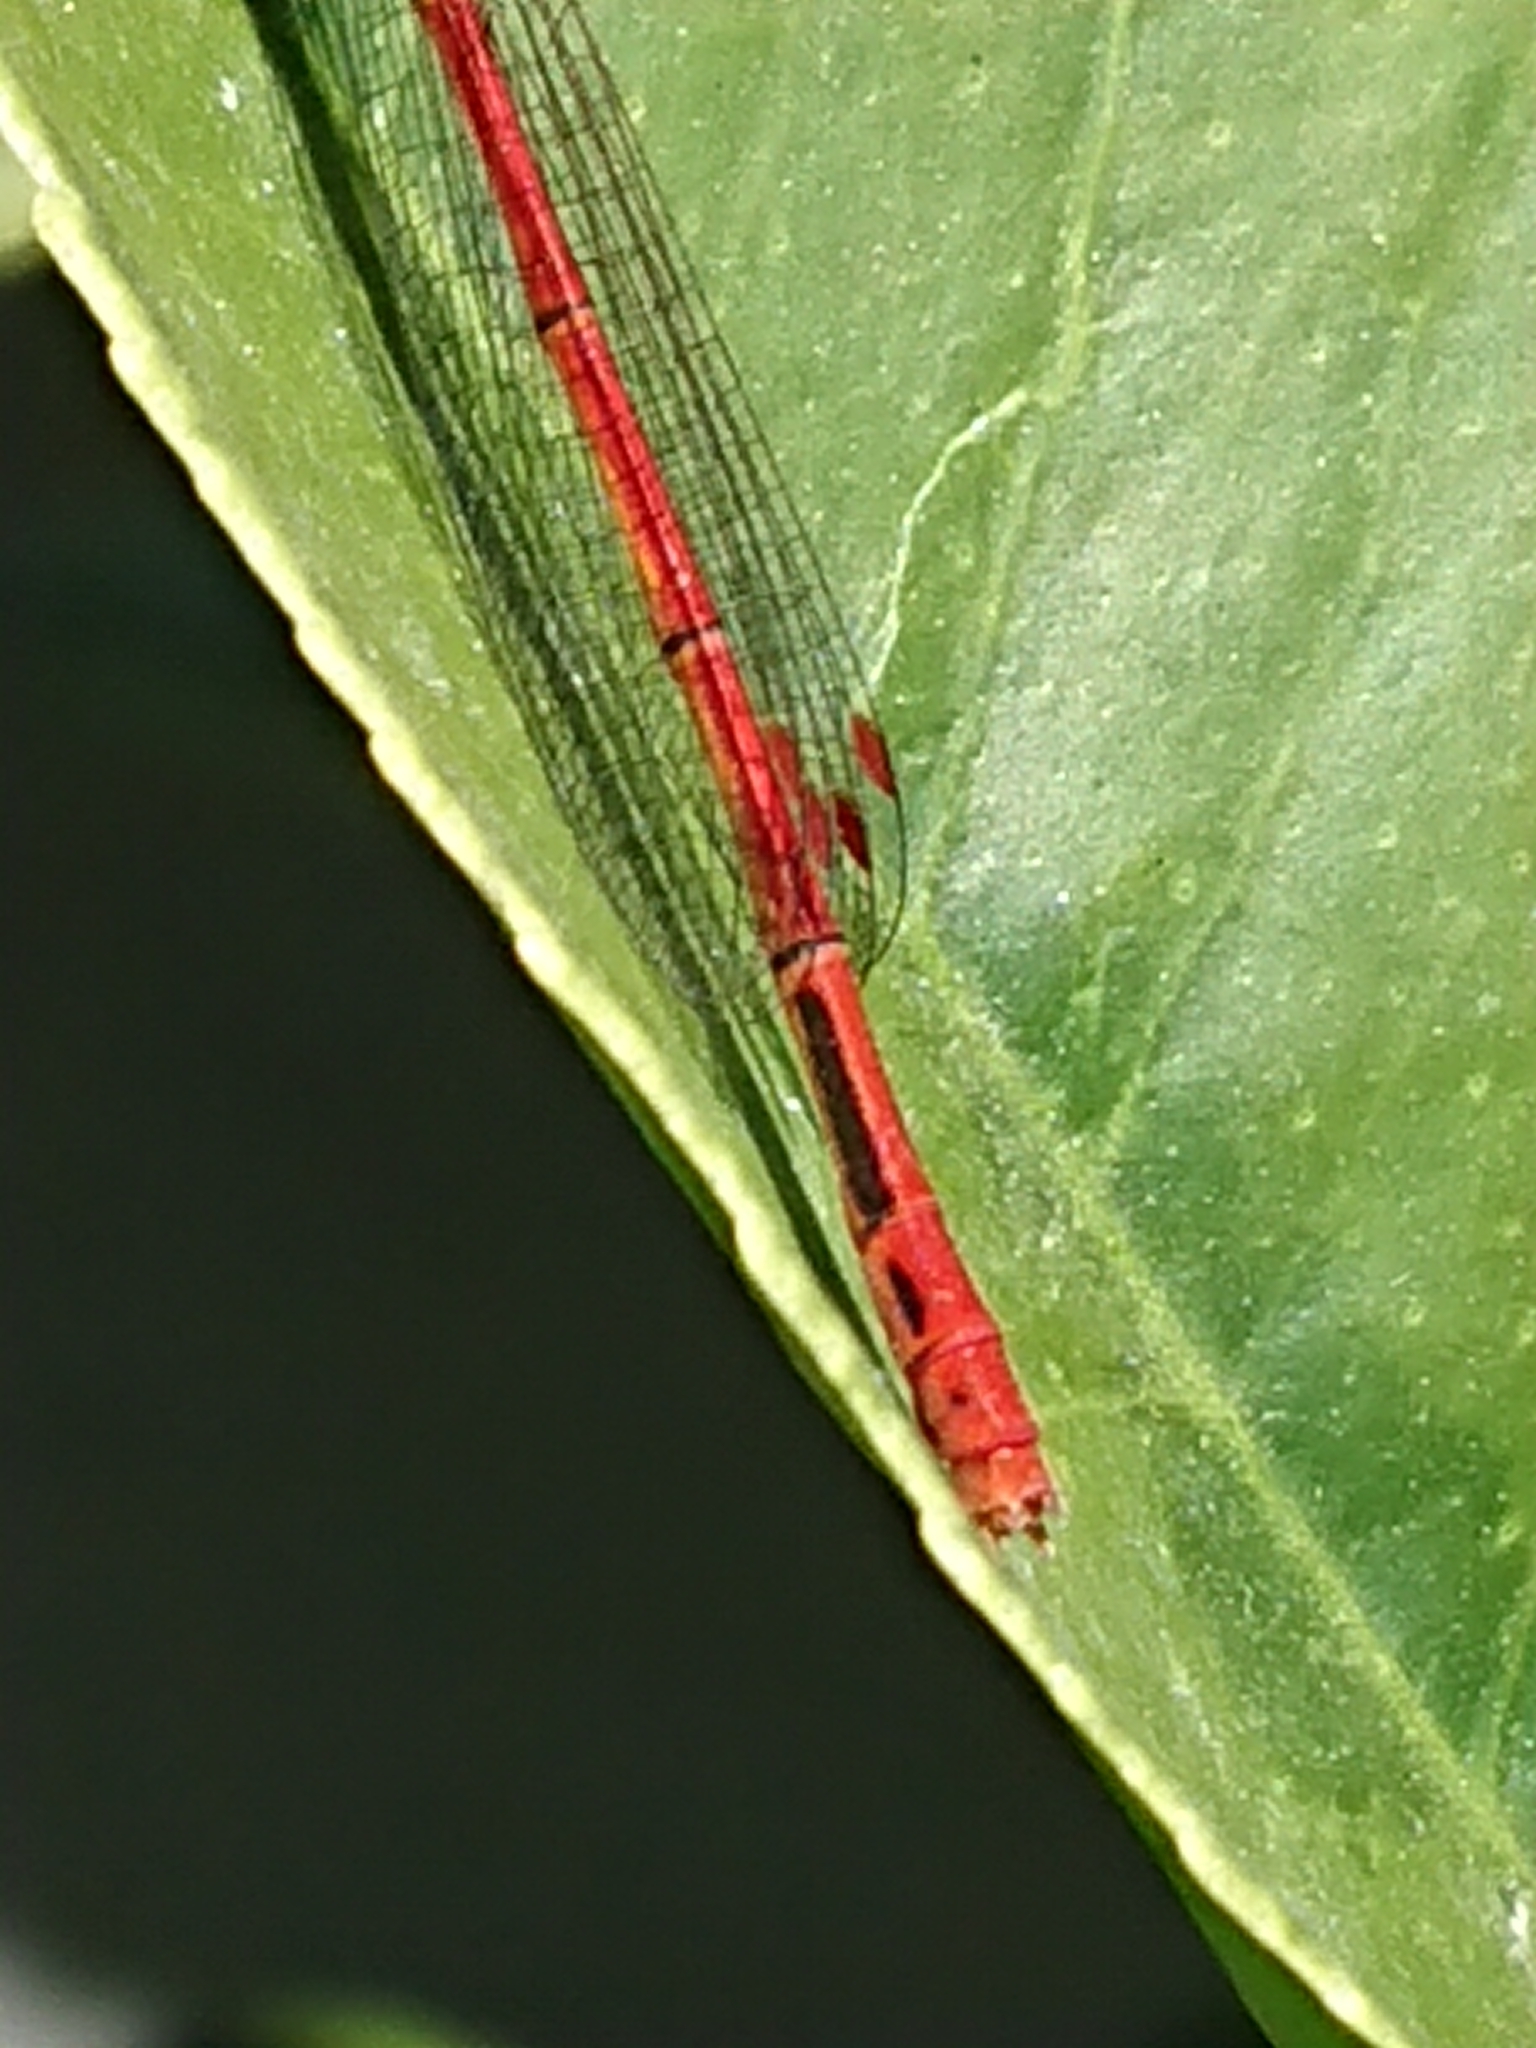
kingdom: Animalia
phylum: Arthropoda
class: Insecta
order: Odonata
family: Coenagrionidae
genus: Xanthocnemis
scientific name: Xanthocnemis zealandica
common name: Common redcoat damselfly
